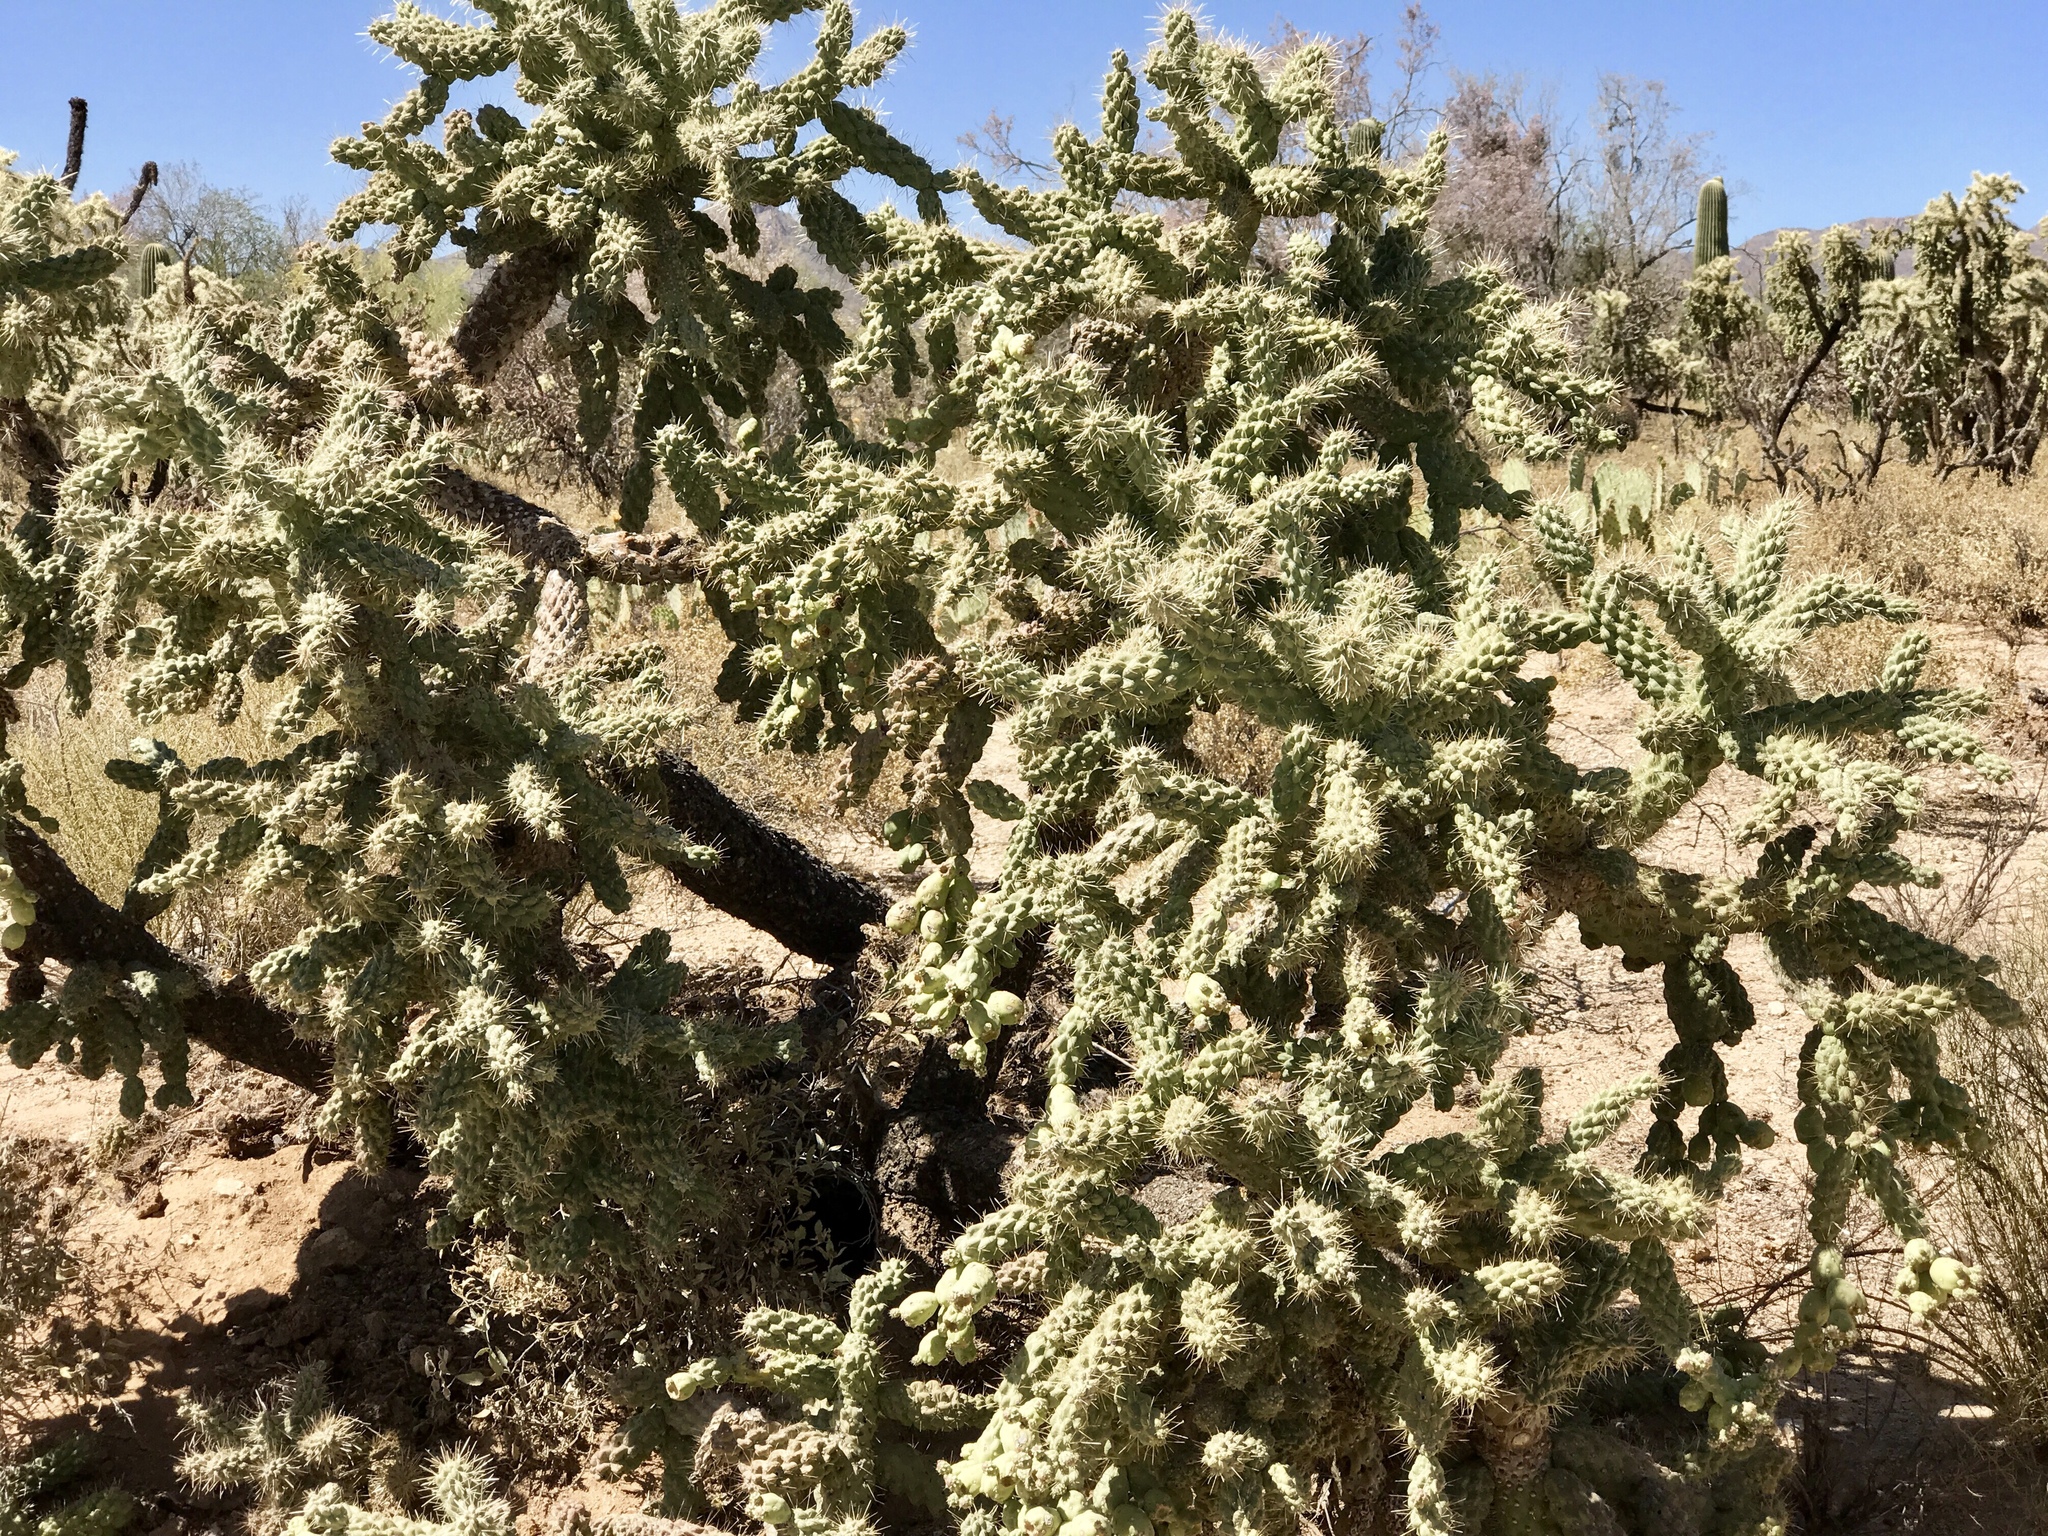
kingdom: Plantae
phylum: Tracheophyta
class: Magnoliopsida
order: Caryophyllales
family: Cactaceae
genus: Cylindropuntia
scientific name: Cylindropuntia fulgida
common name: Jumping cholla
